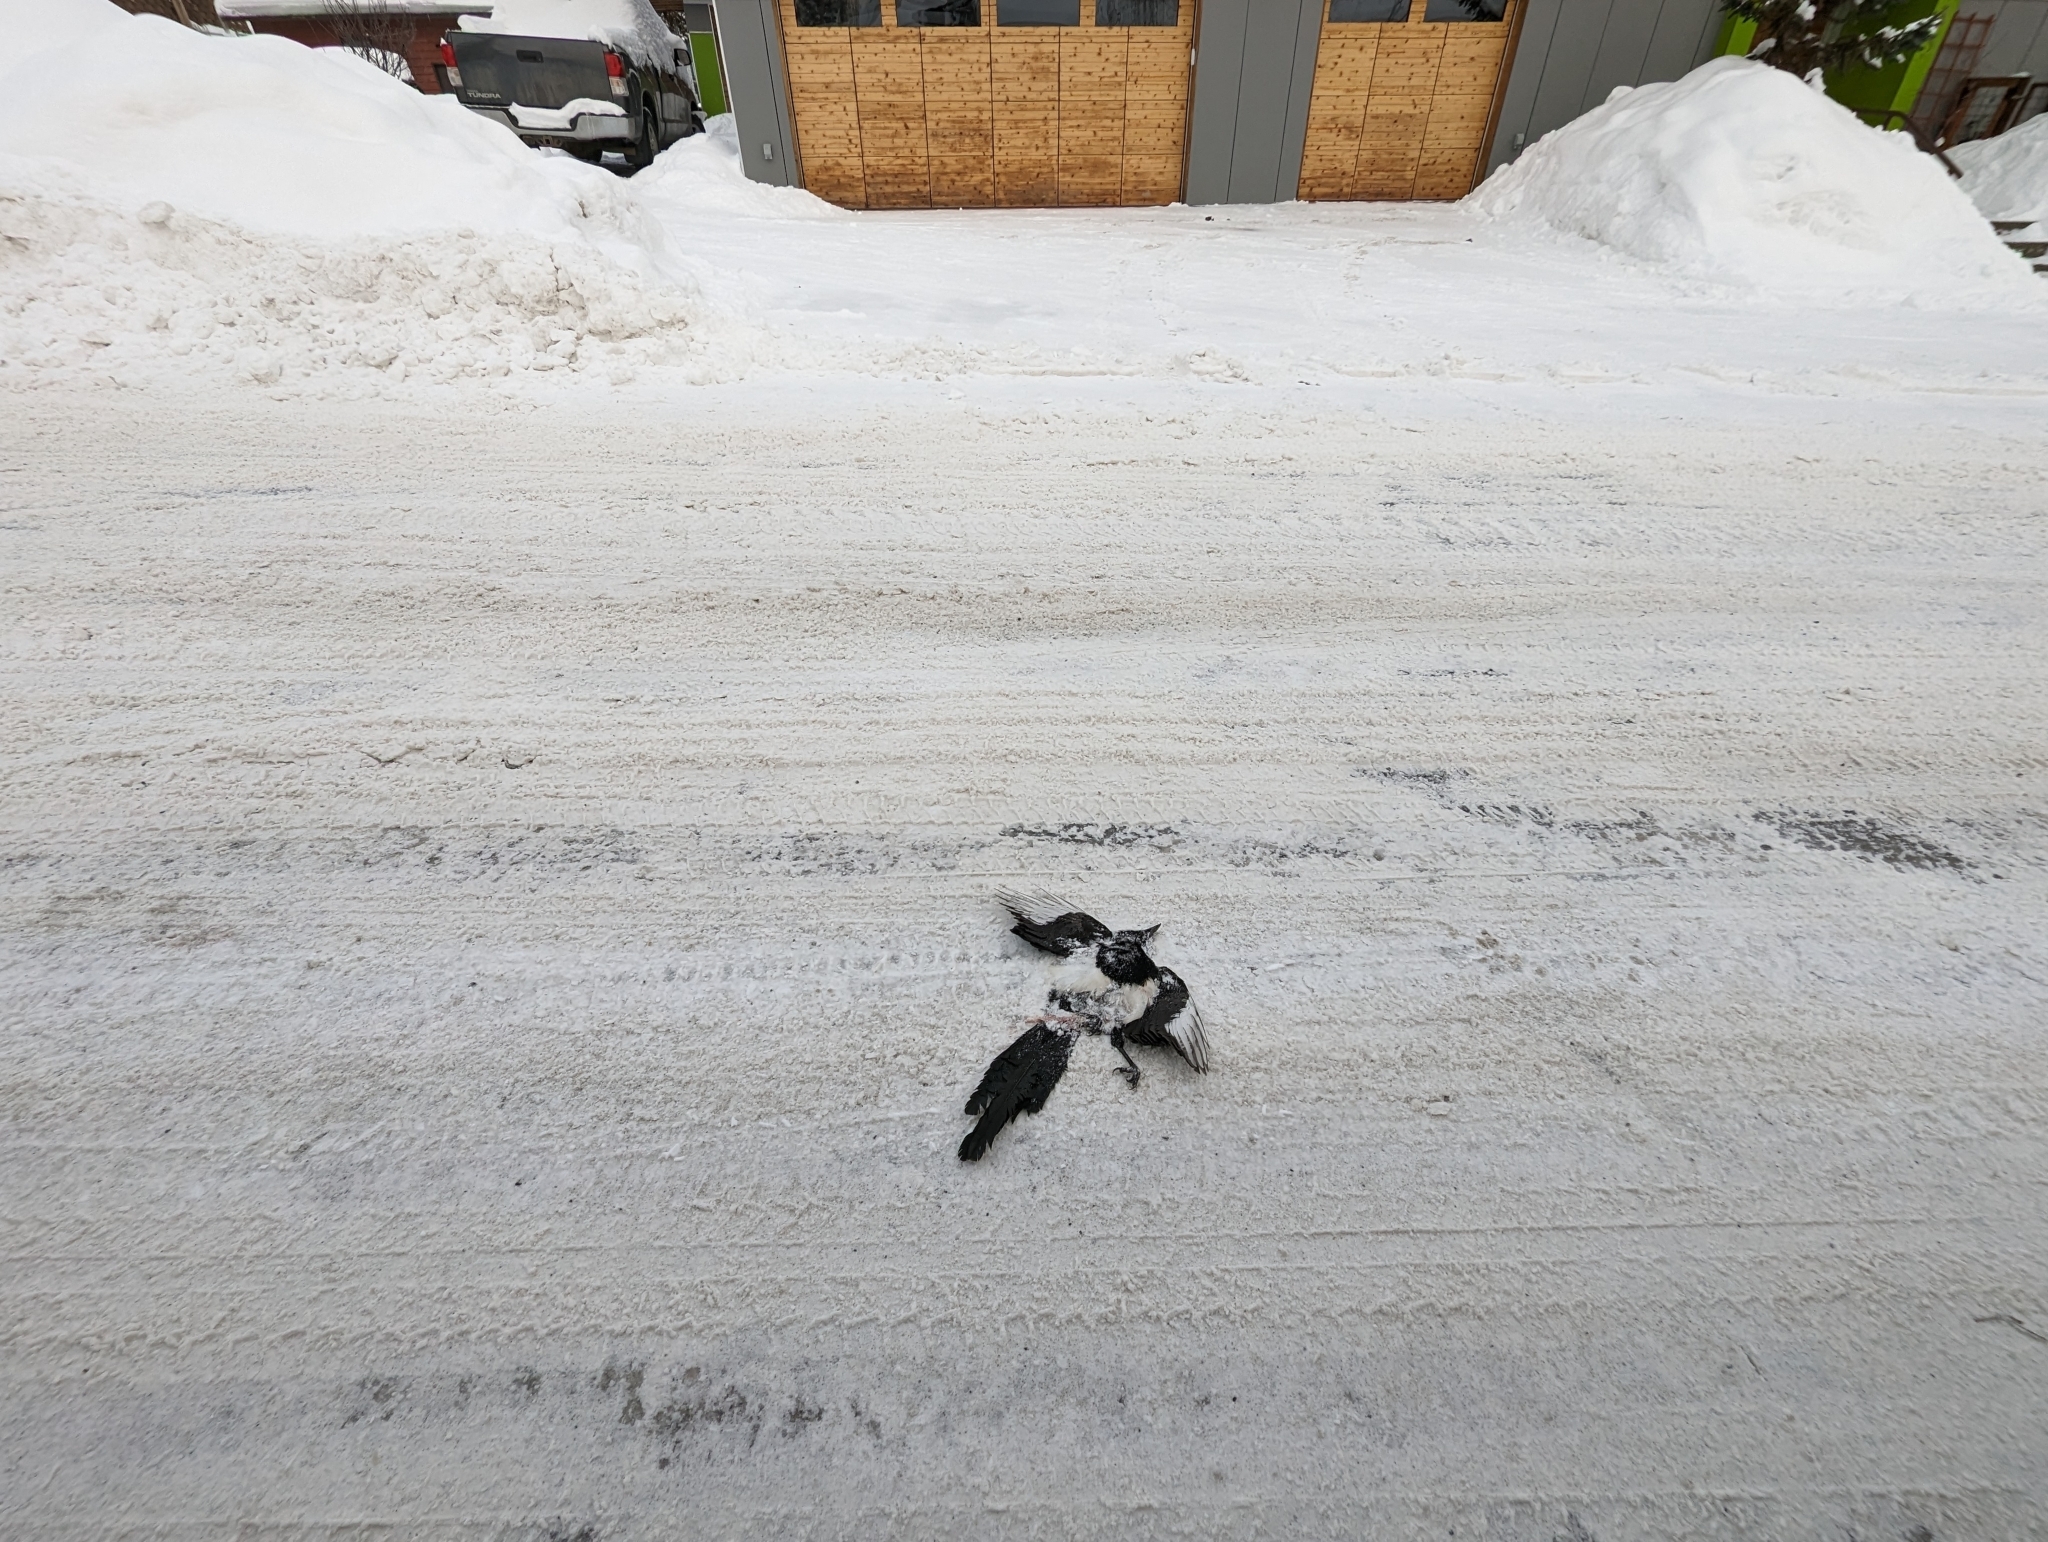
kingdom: Animalia
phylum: Chordata
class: Aves
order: Passeriformes
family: Corvidae
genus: Pica
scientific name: Pica hudsonia
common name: Black-billed magpie
